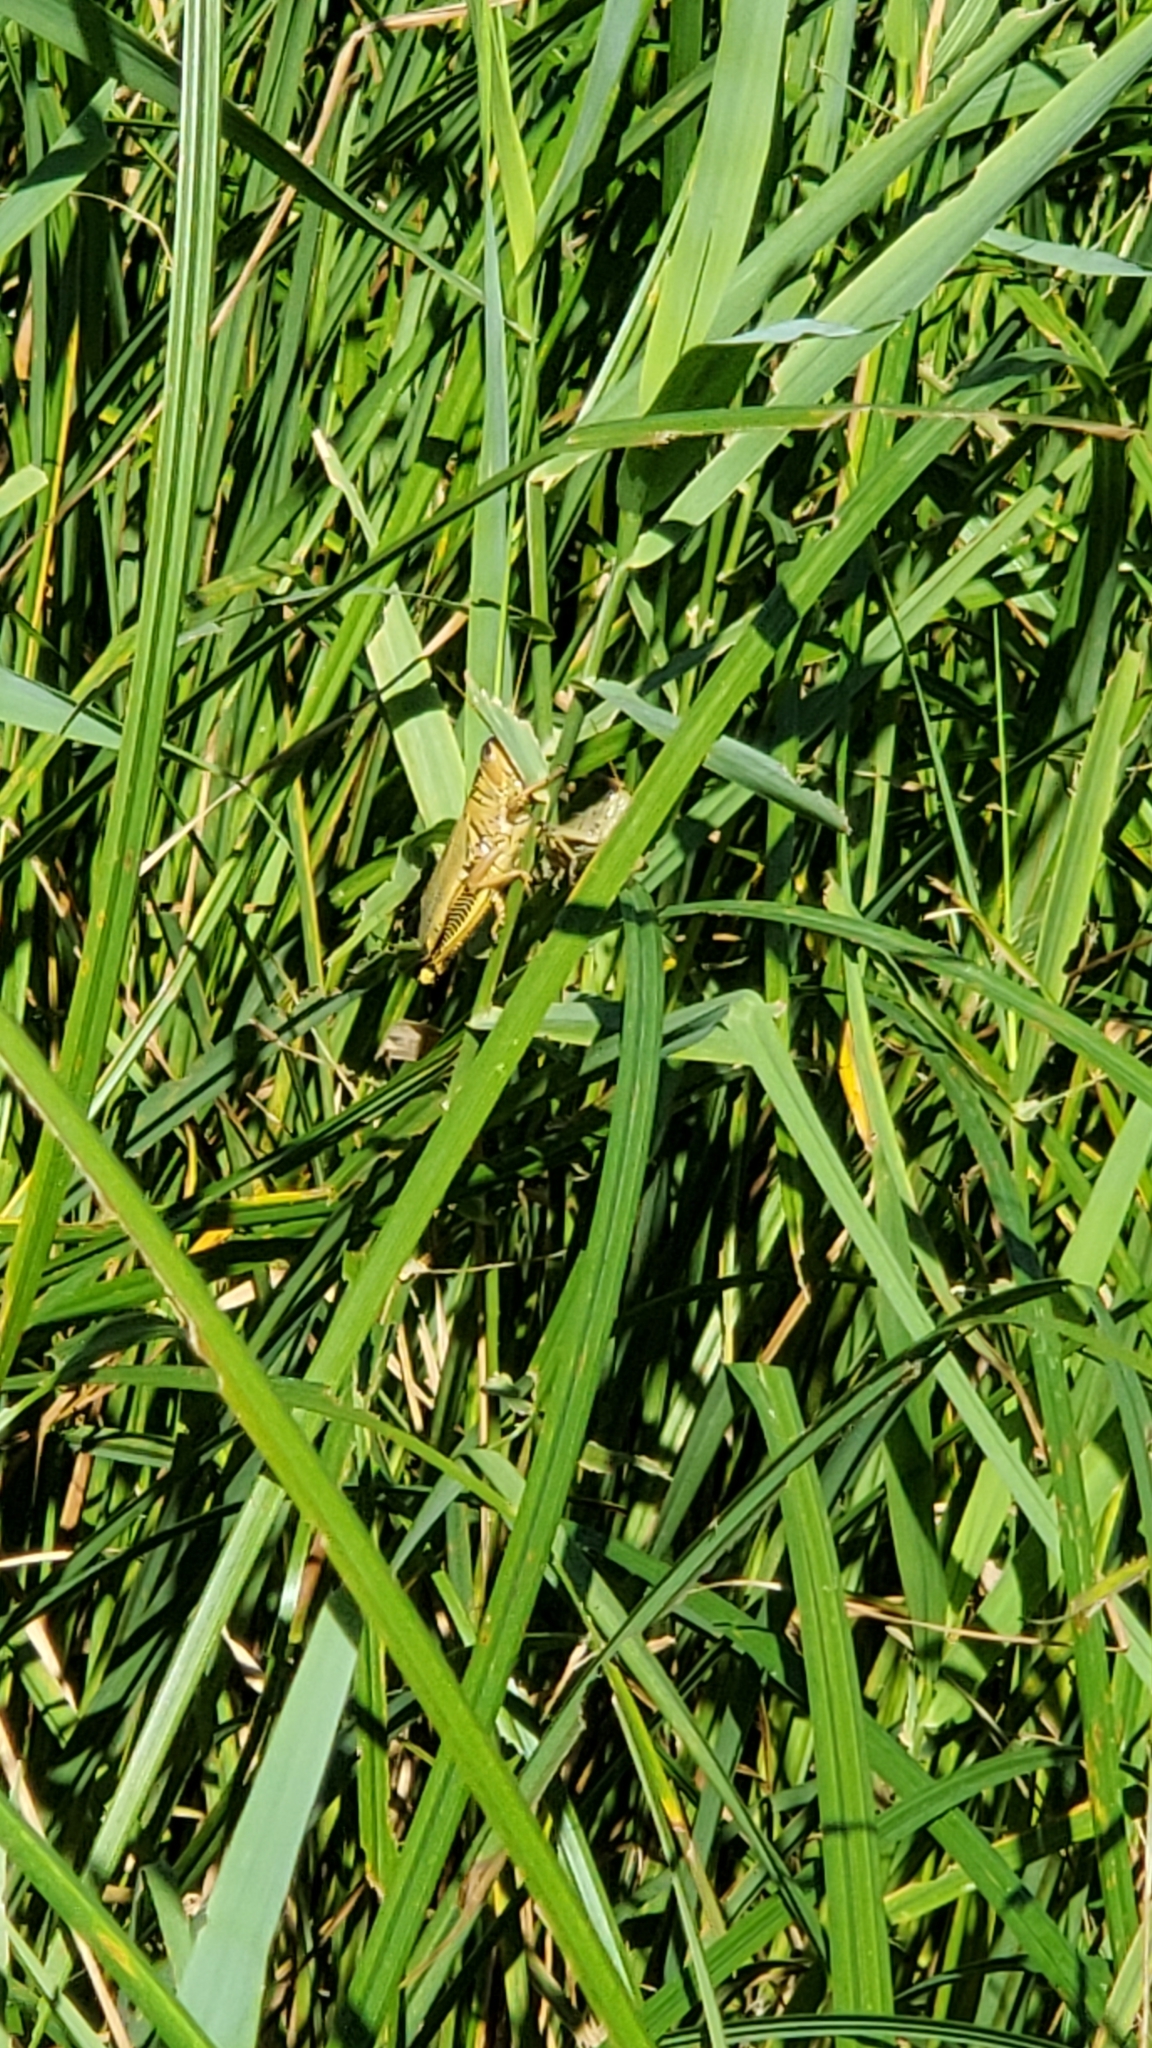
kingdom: Animalia
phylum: Arthropoda
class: Insecta
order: Orthoptera
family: Acrididae
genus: Melanoplus
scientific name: Melanoplus differentialis
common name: Differential grasshopper
